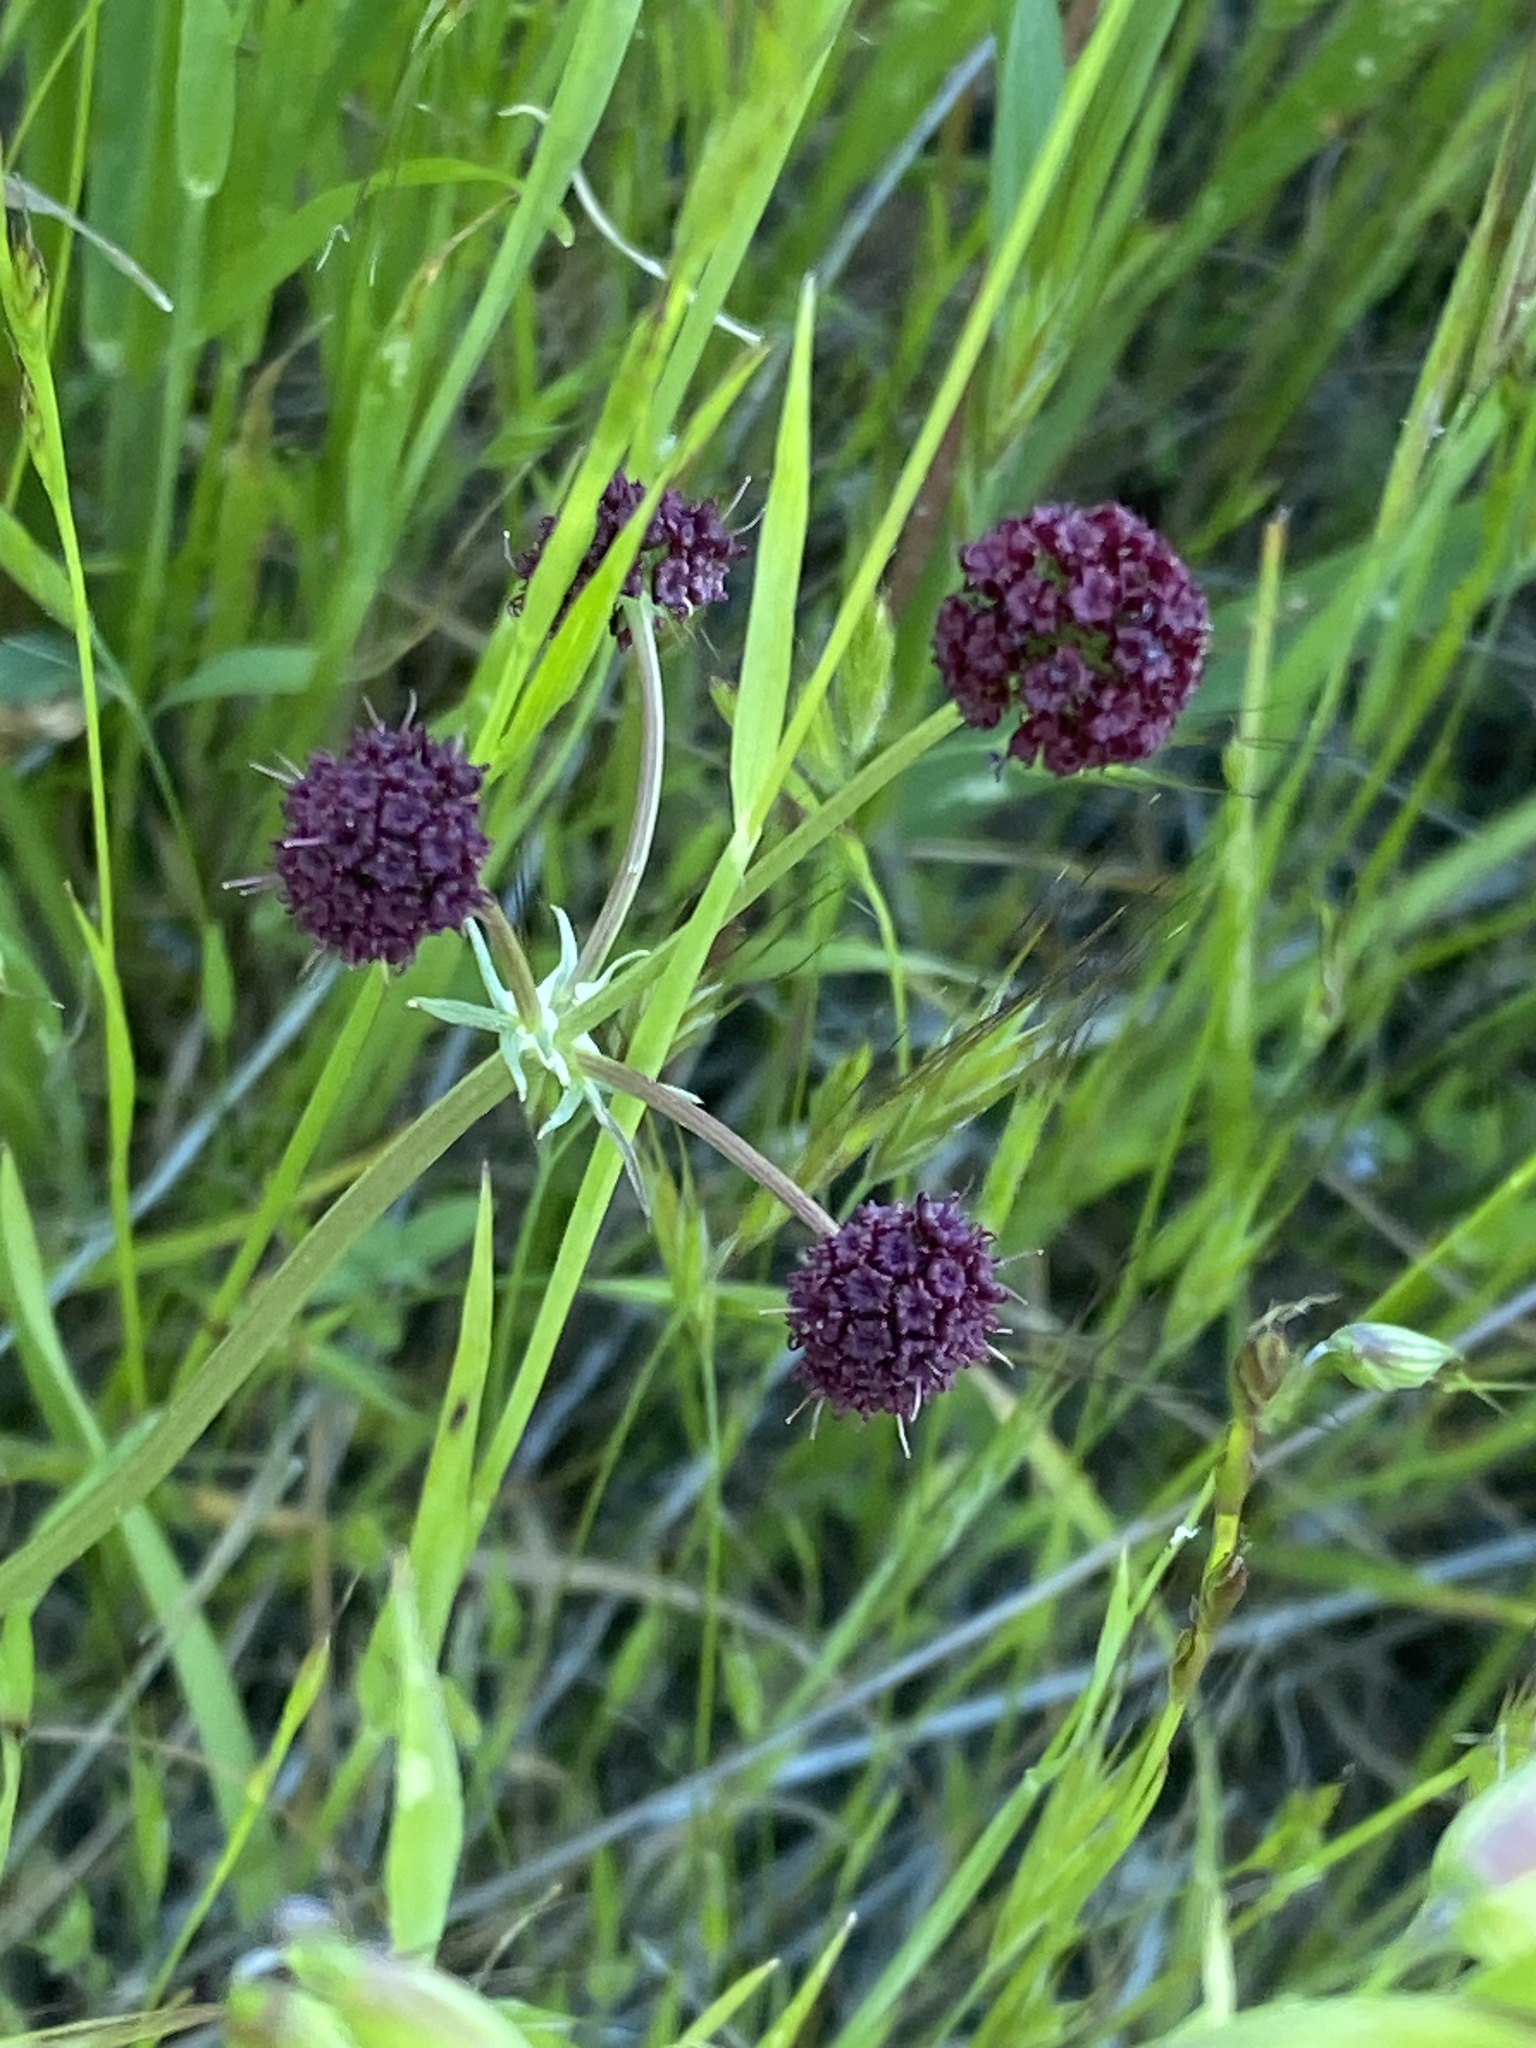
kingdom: Plantae
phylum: Tracheophyta
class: Magnoliopsida
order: Apiales
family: Apiaceae
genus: Sanicula
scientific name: Sanicula bipinnatifida
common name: Shoe-buttons
